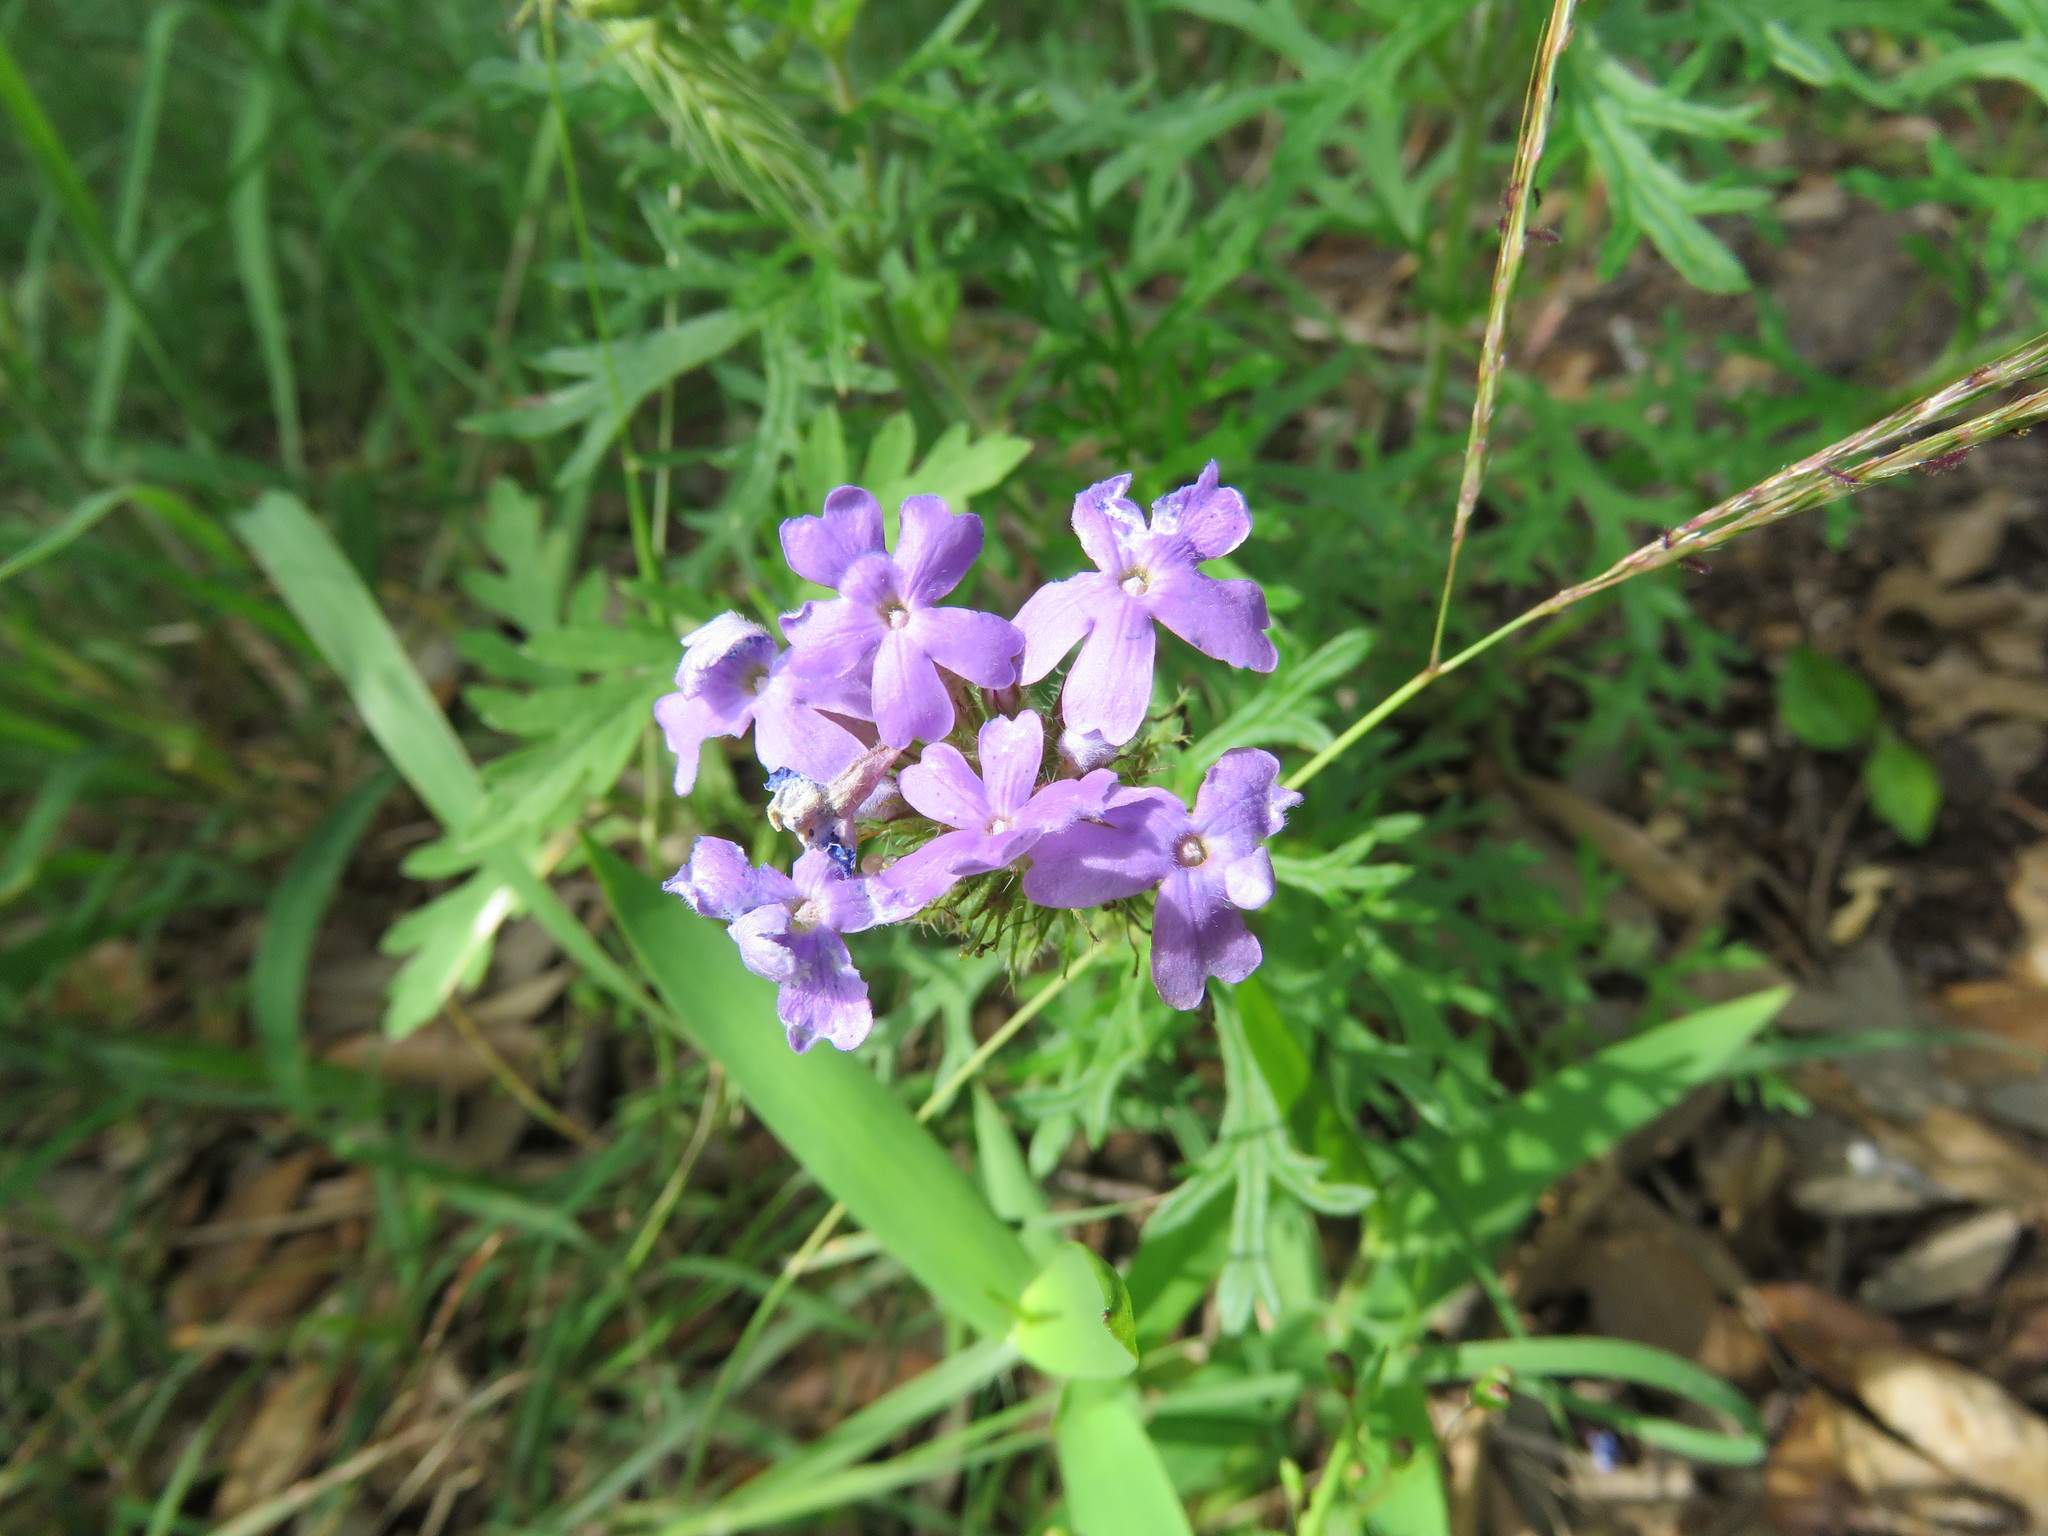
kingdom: Plantae
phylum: Tracheophyta
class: Magnoliopsida
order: Lamiales
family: Verbenaceae
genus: Verbena
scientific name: Verbena bipinnatifida
